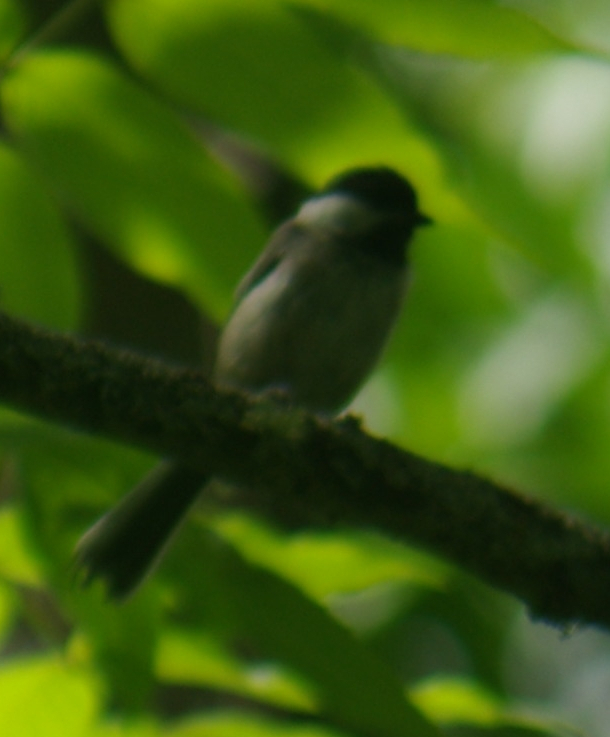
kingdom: Animalia
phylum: Chordata
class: Aves
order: Passeriformes
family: Paridae
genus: Poecile
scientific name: Poecile atricapillus
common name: Black-capped chickadee
